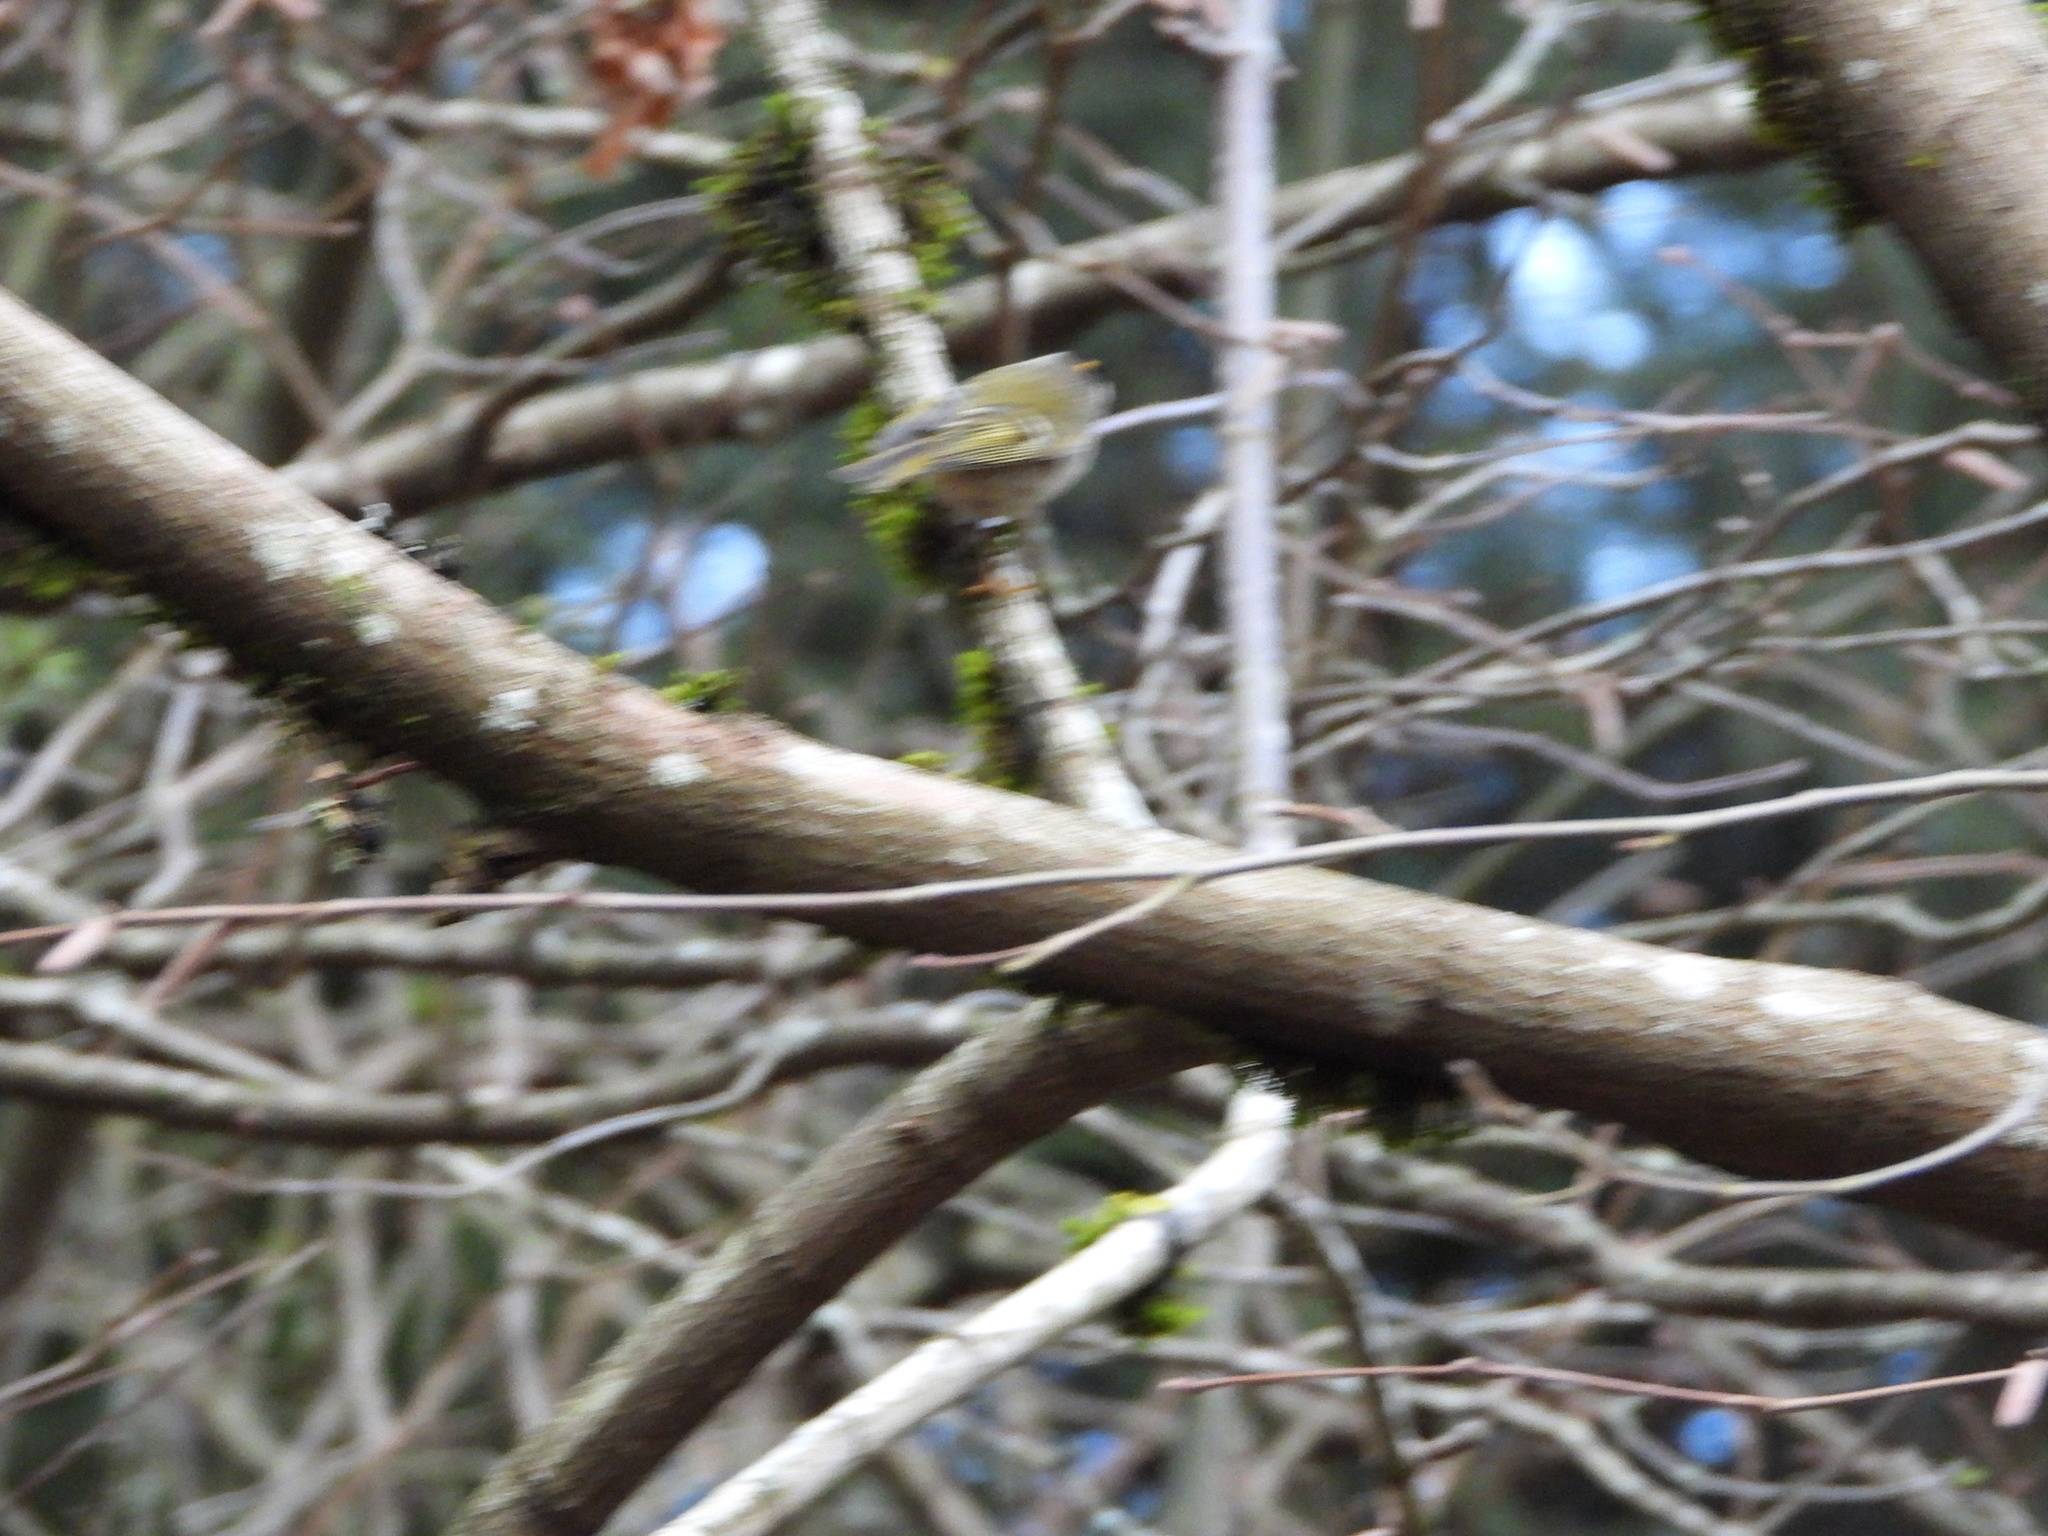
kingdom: Animalia
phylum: Chordata
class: Aves
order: Passeriformes
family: Regulidae
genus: Regulus
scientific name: Regulus satrapa
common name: Golden-crowned kinglet
